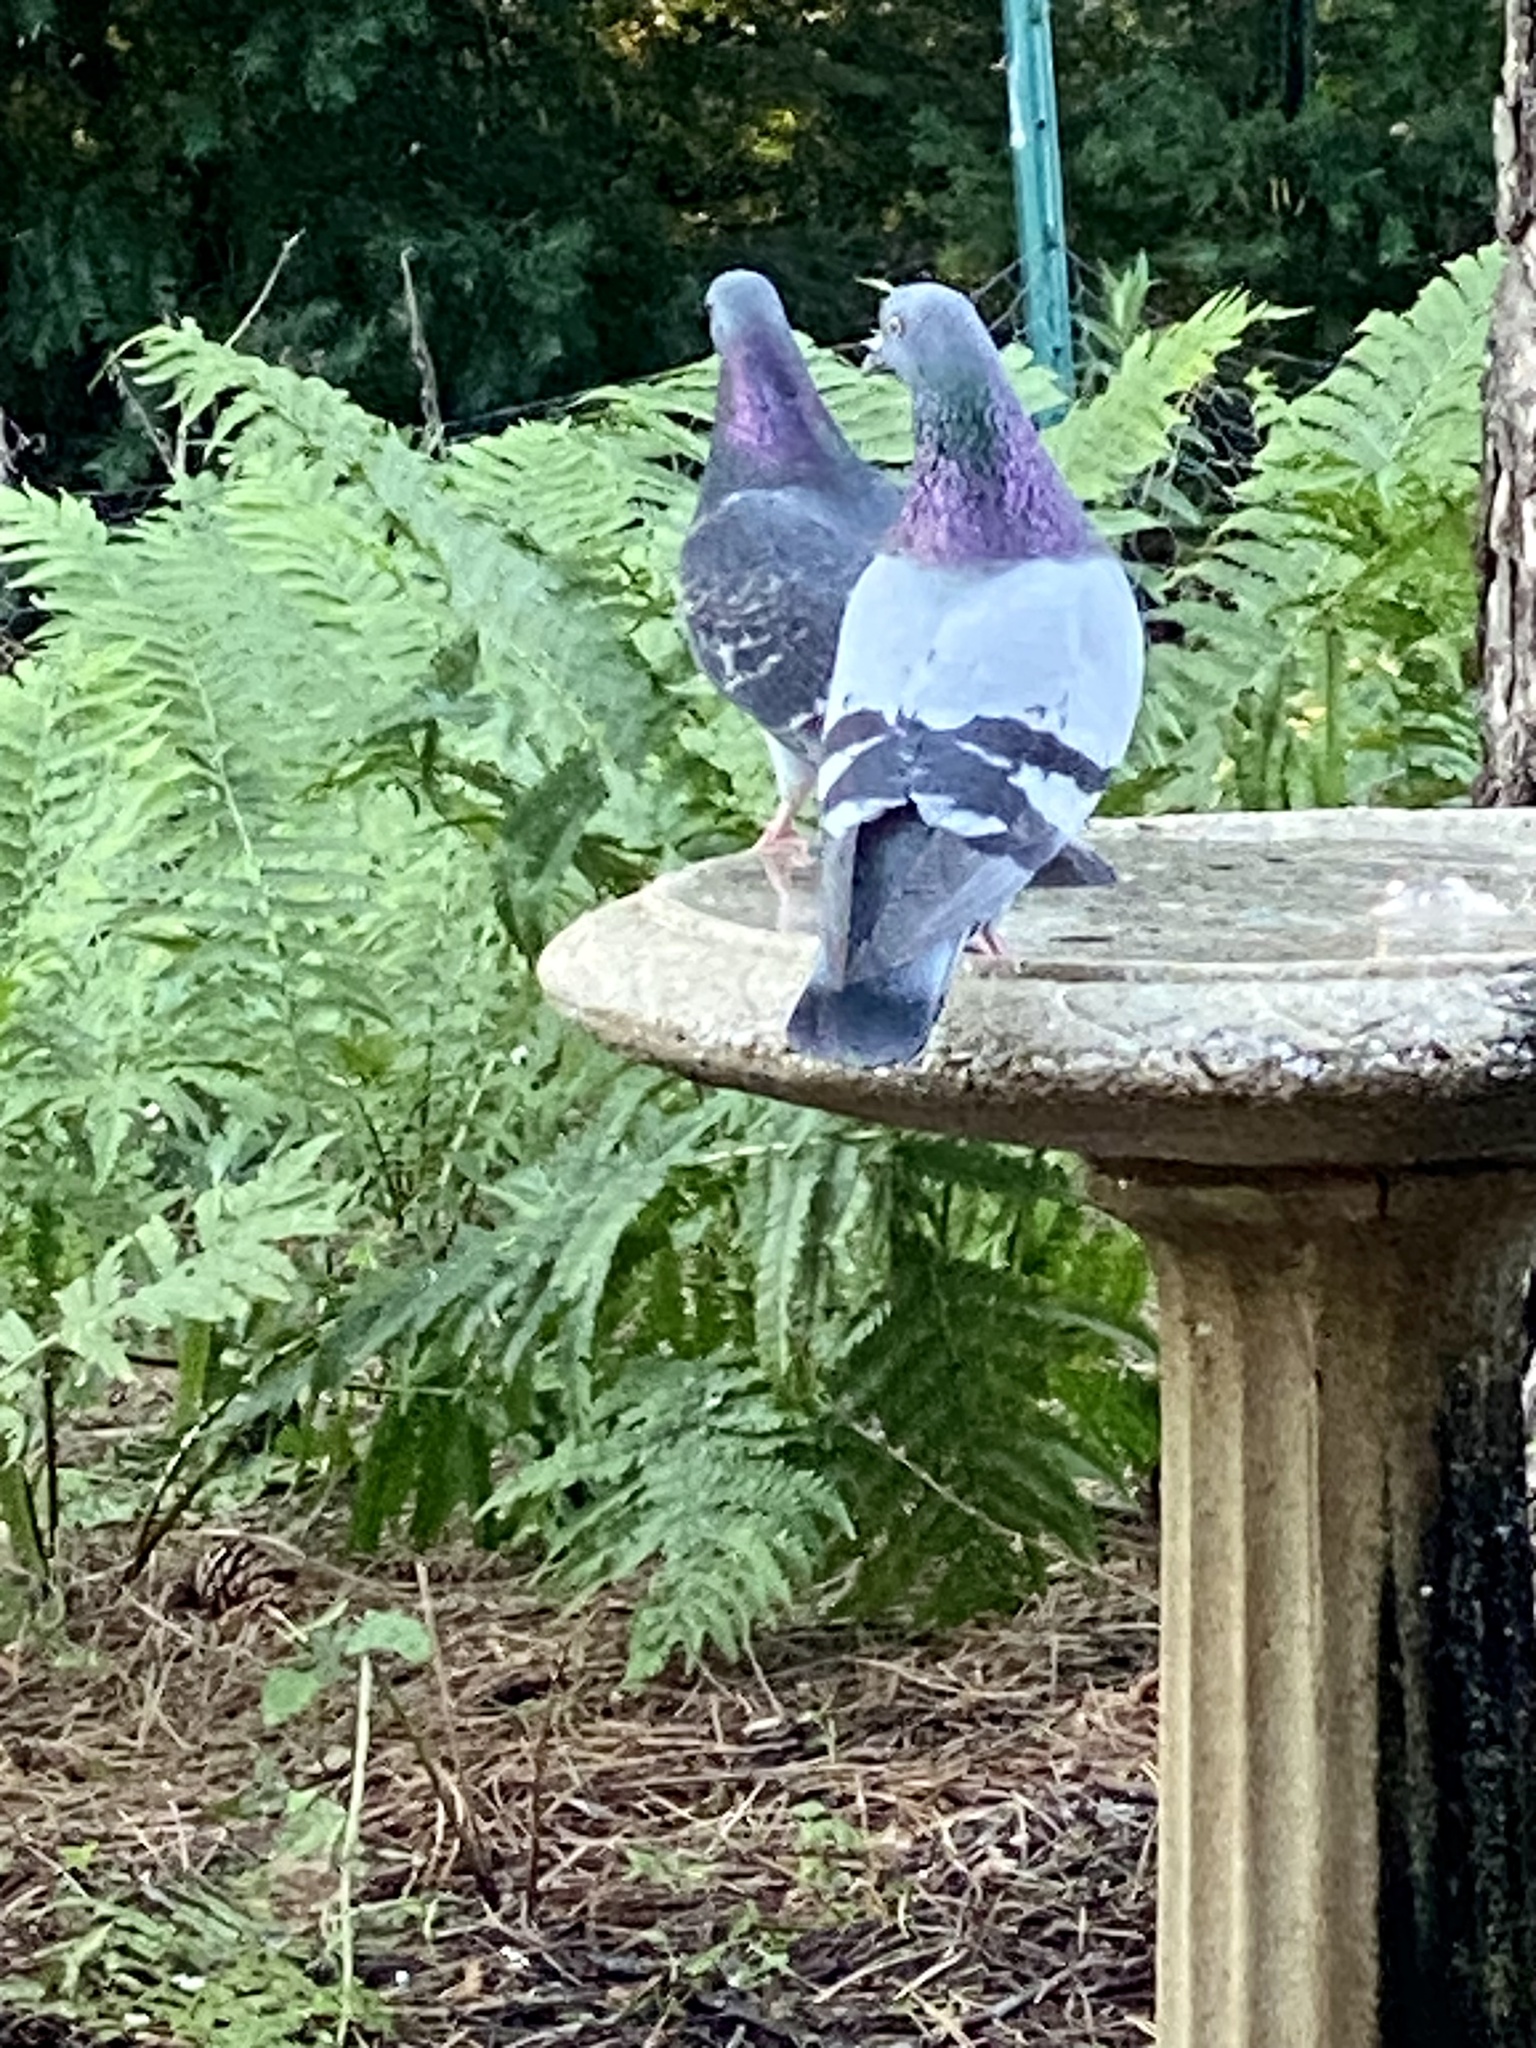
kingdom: Animalia
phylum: Chordata
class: Aves
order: Columbiformes
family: Columbidae
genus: Columba
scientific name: Columba livia
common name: Rock pigeon
